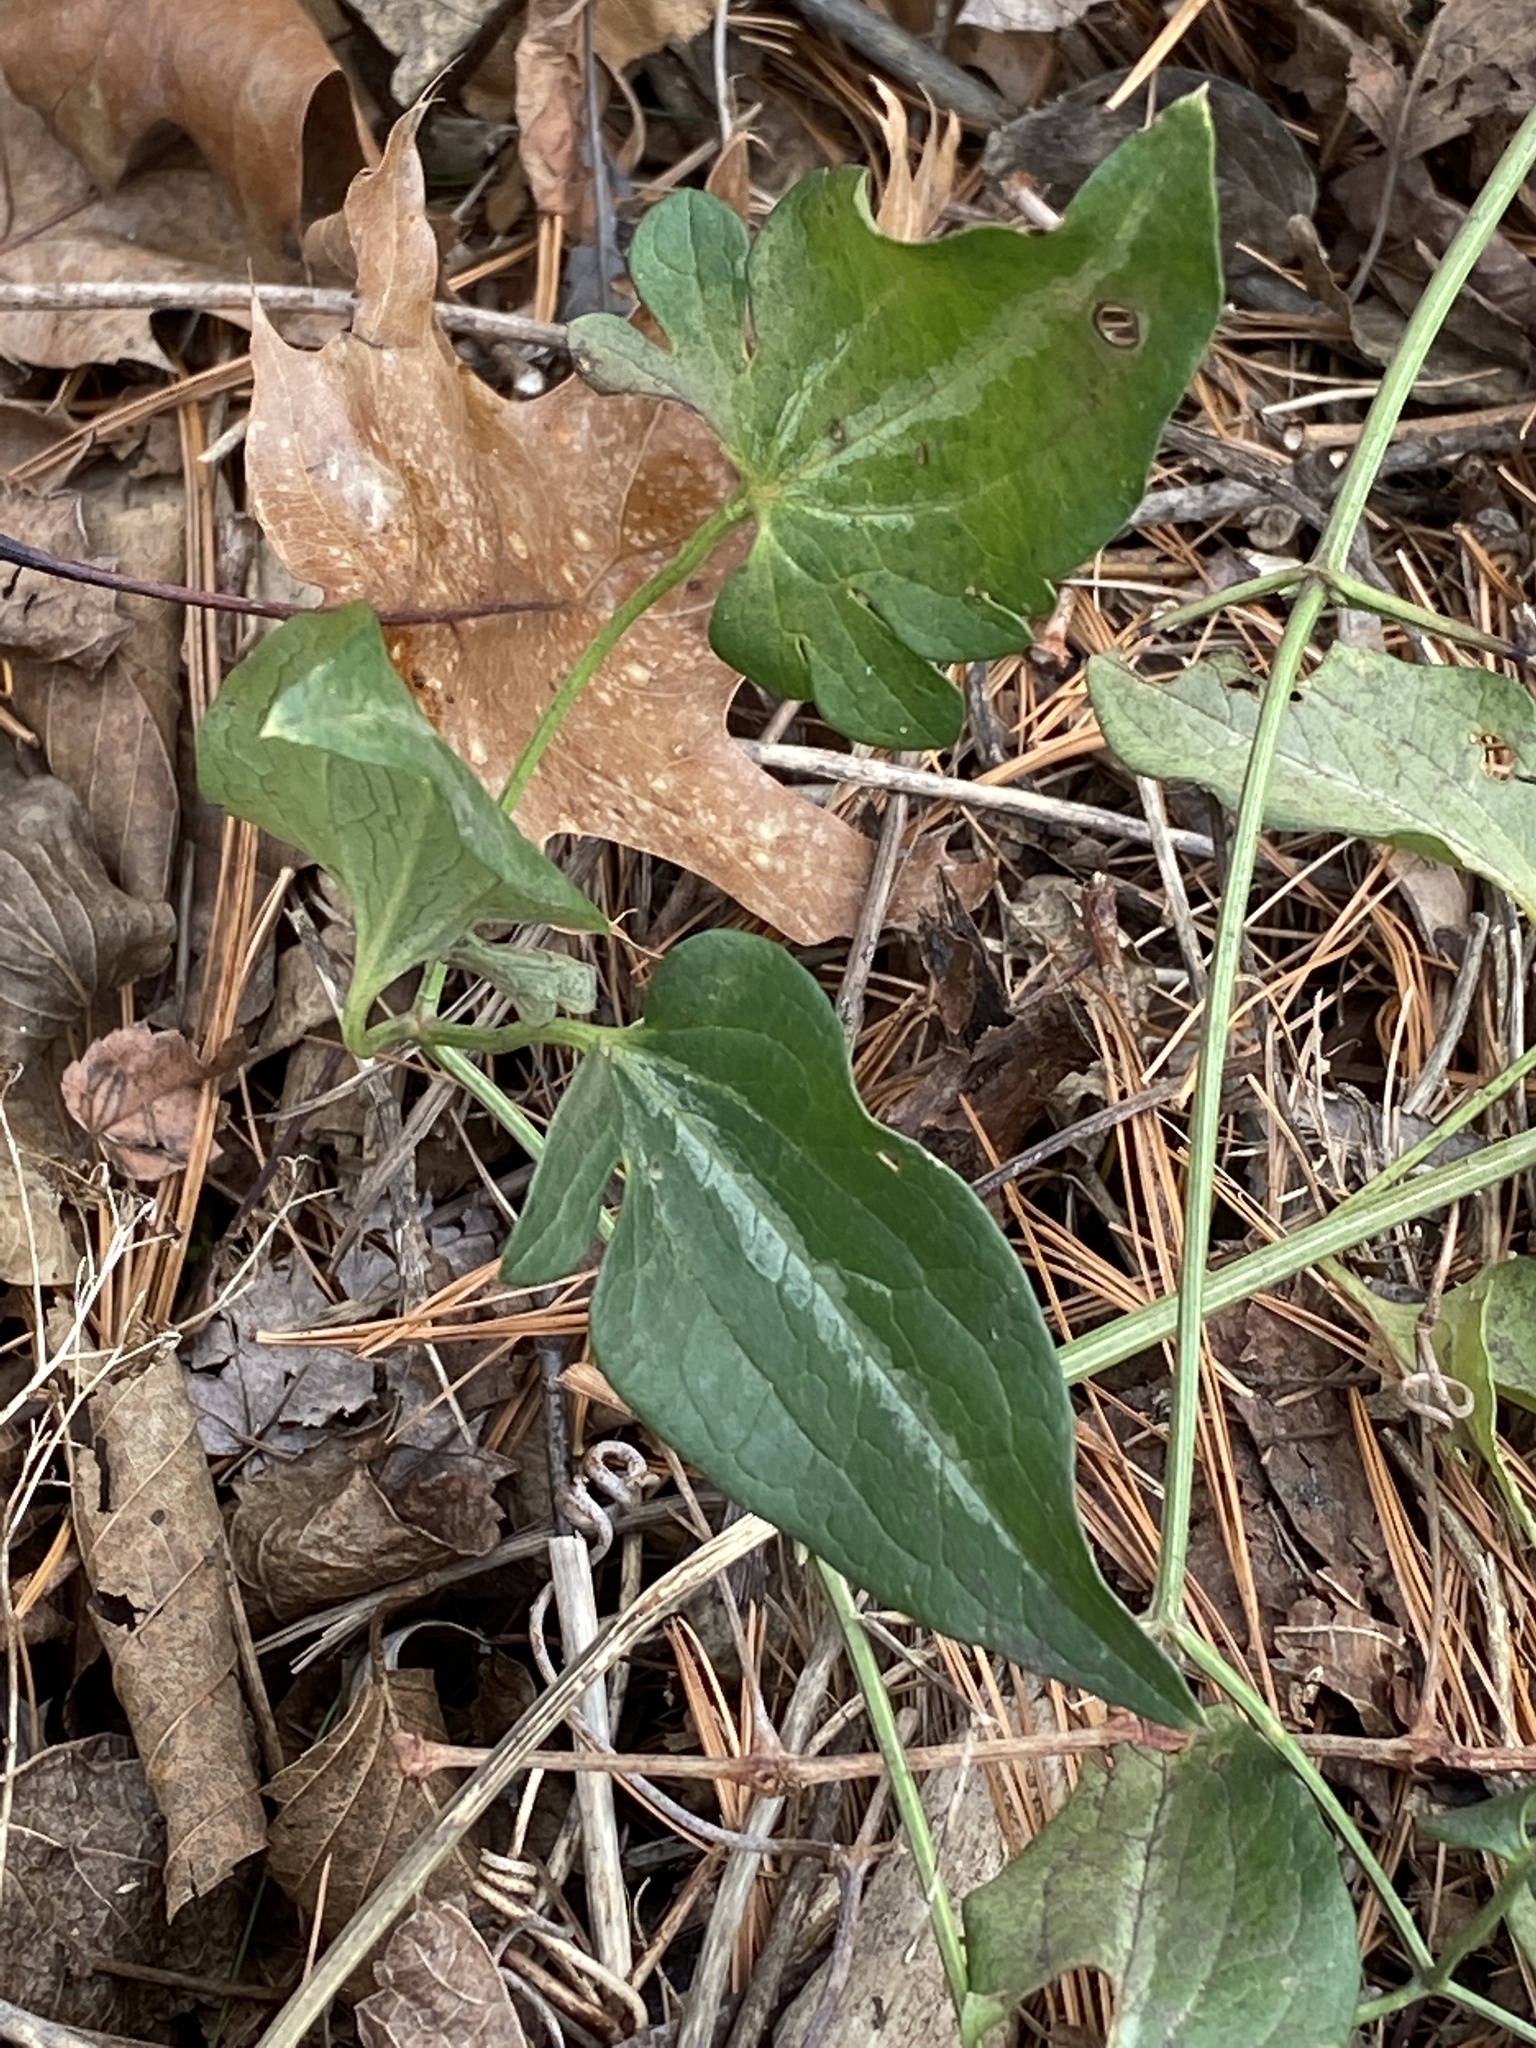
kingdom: Plantae
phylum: Tracheophyta
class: Magnoliopsida
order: Ranunculales
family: Ranunculaceae
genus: Clematis
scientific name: Clematis terniflora
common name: Sweet autumn clematis
